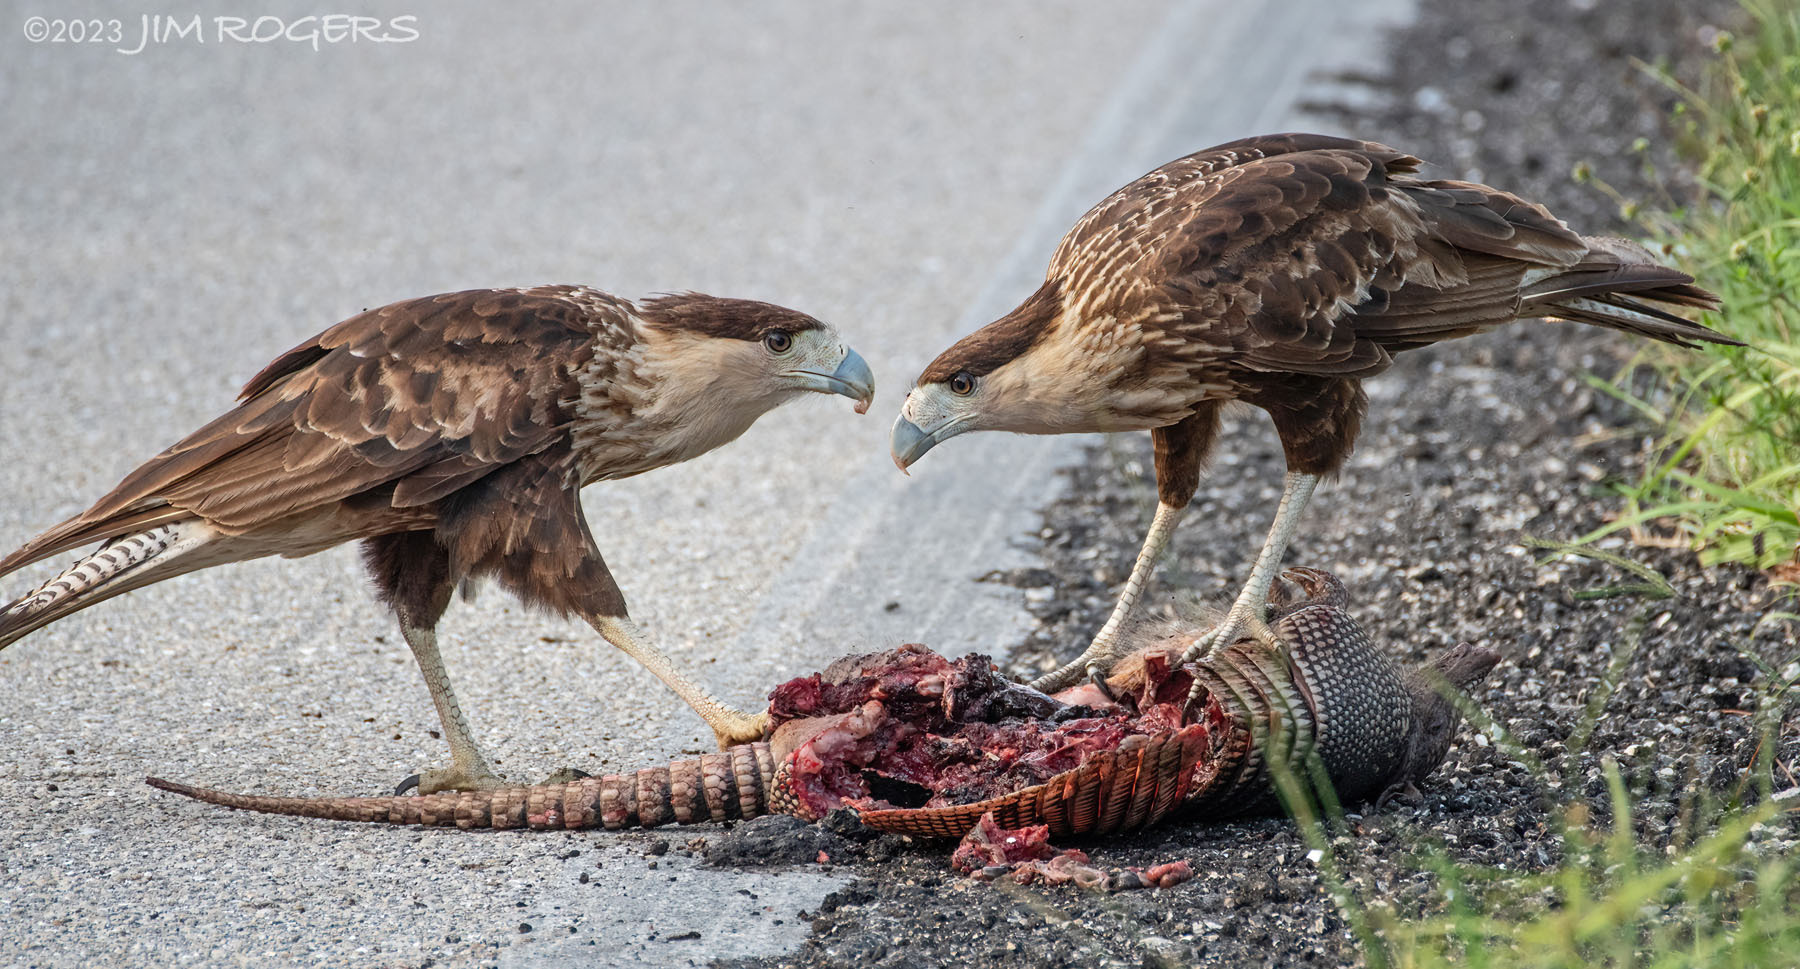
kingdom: Animalia
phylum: Chordata
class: Aves
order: Falconiformes
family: Falconidae
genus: Caracara
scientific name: Caracara plancus
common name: Southern caracara
